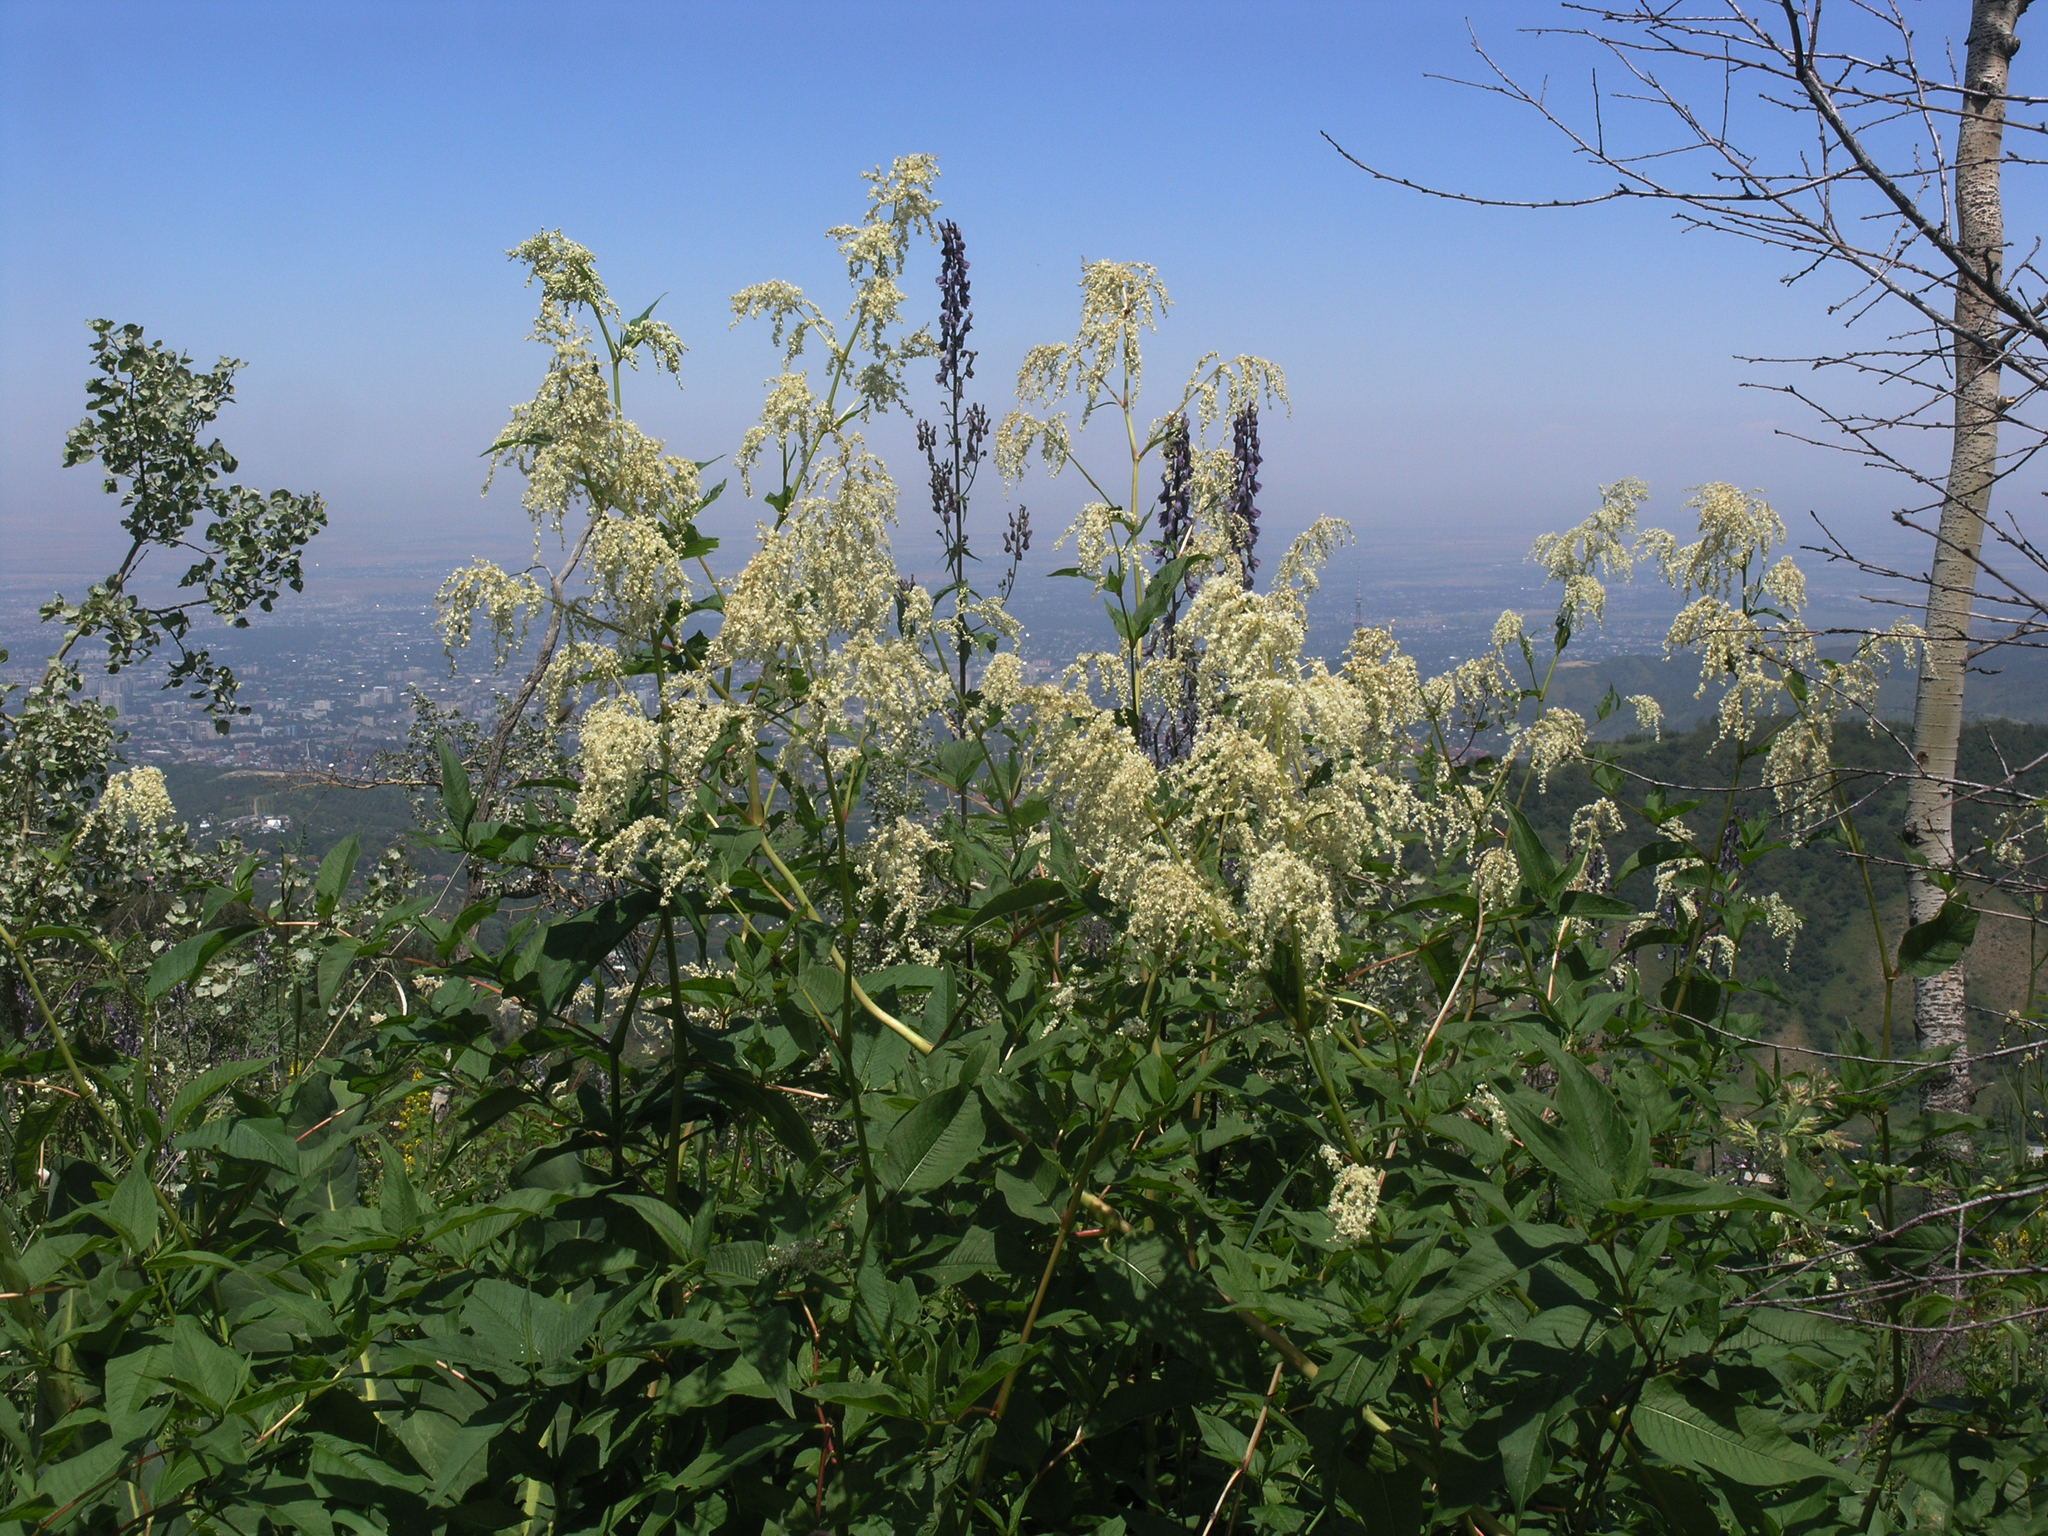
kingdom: Plantae
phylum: Tracheophyta
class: Magnoliopsida
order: Ranunculales
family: Ranunculaceae
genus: Aconitum
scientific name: Aconitum leucostomum
